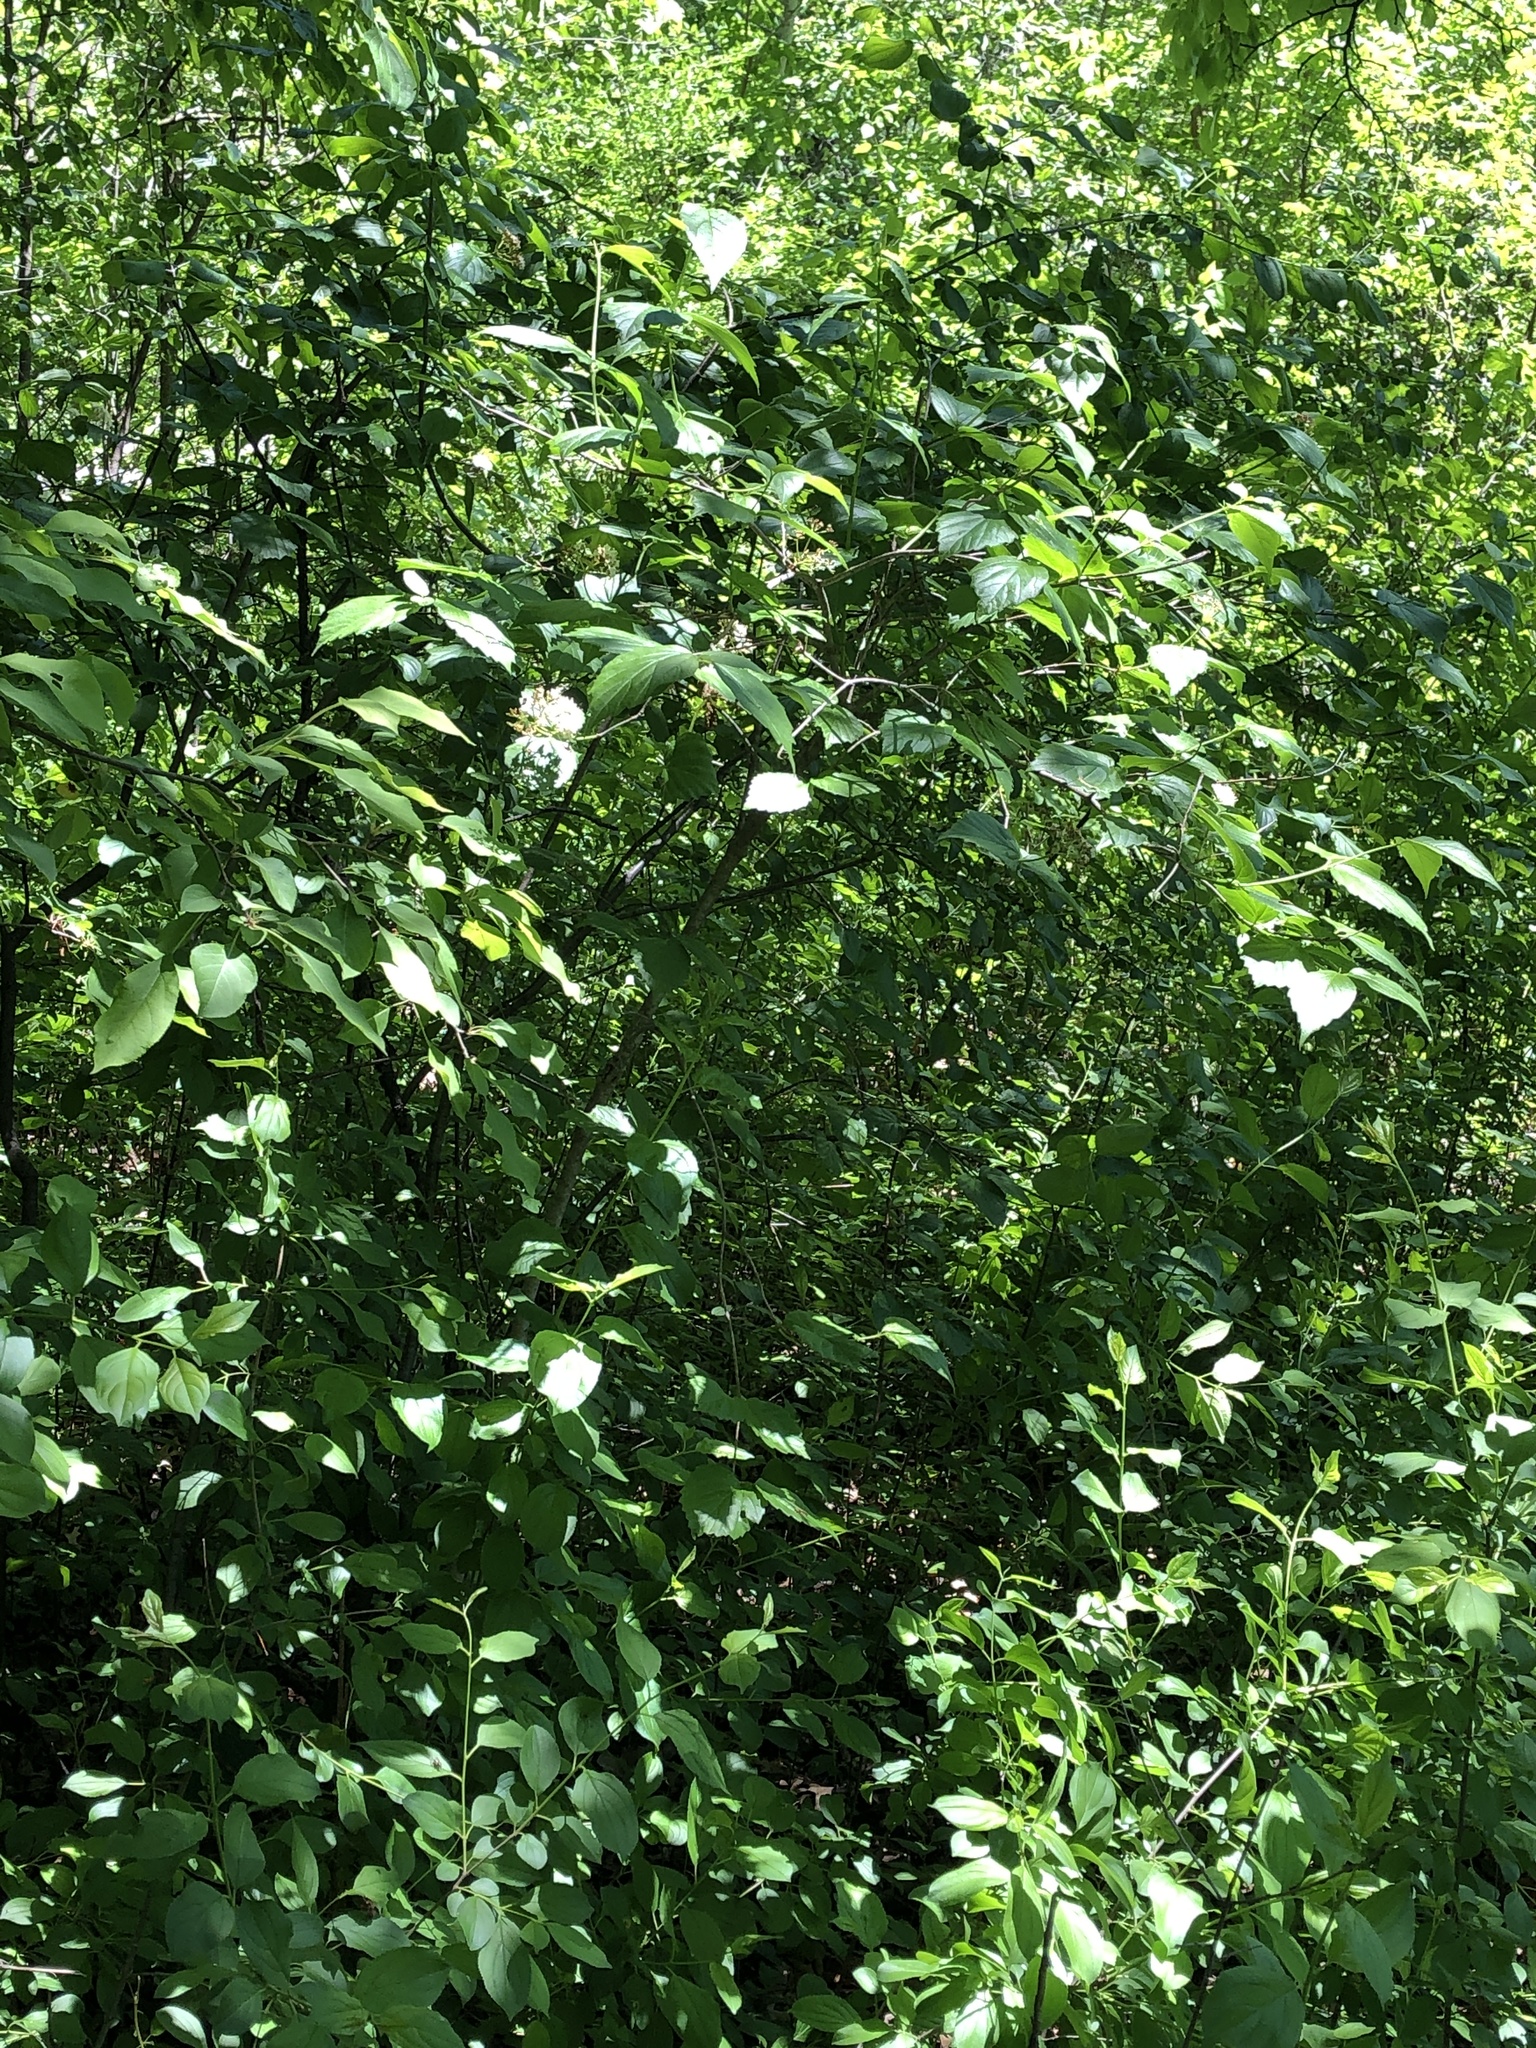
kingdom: Plantae
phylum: Tracheophyta
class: Magnoliopsida
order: Dipsacales
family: Viburnaceae
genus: Viburnum
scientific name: Viburnum rafinesqueanum
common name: Downy arrow-wood
